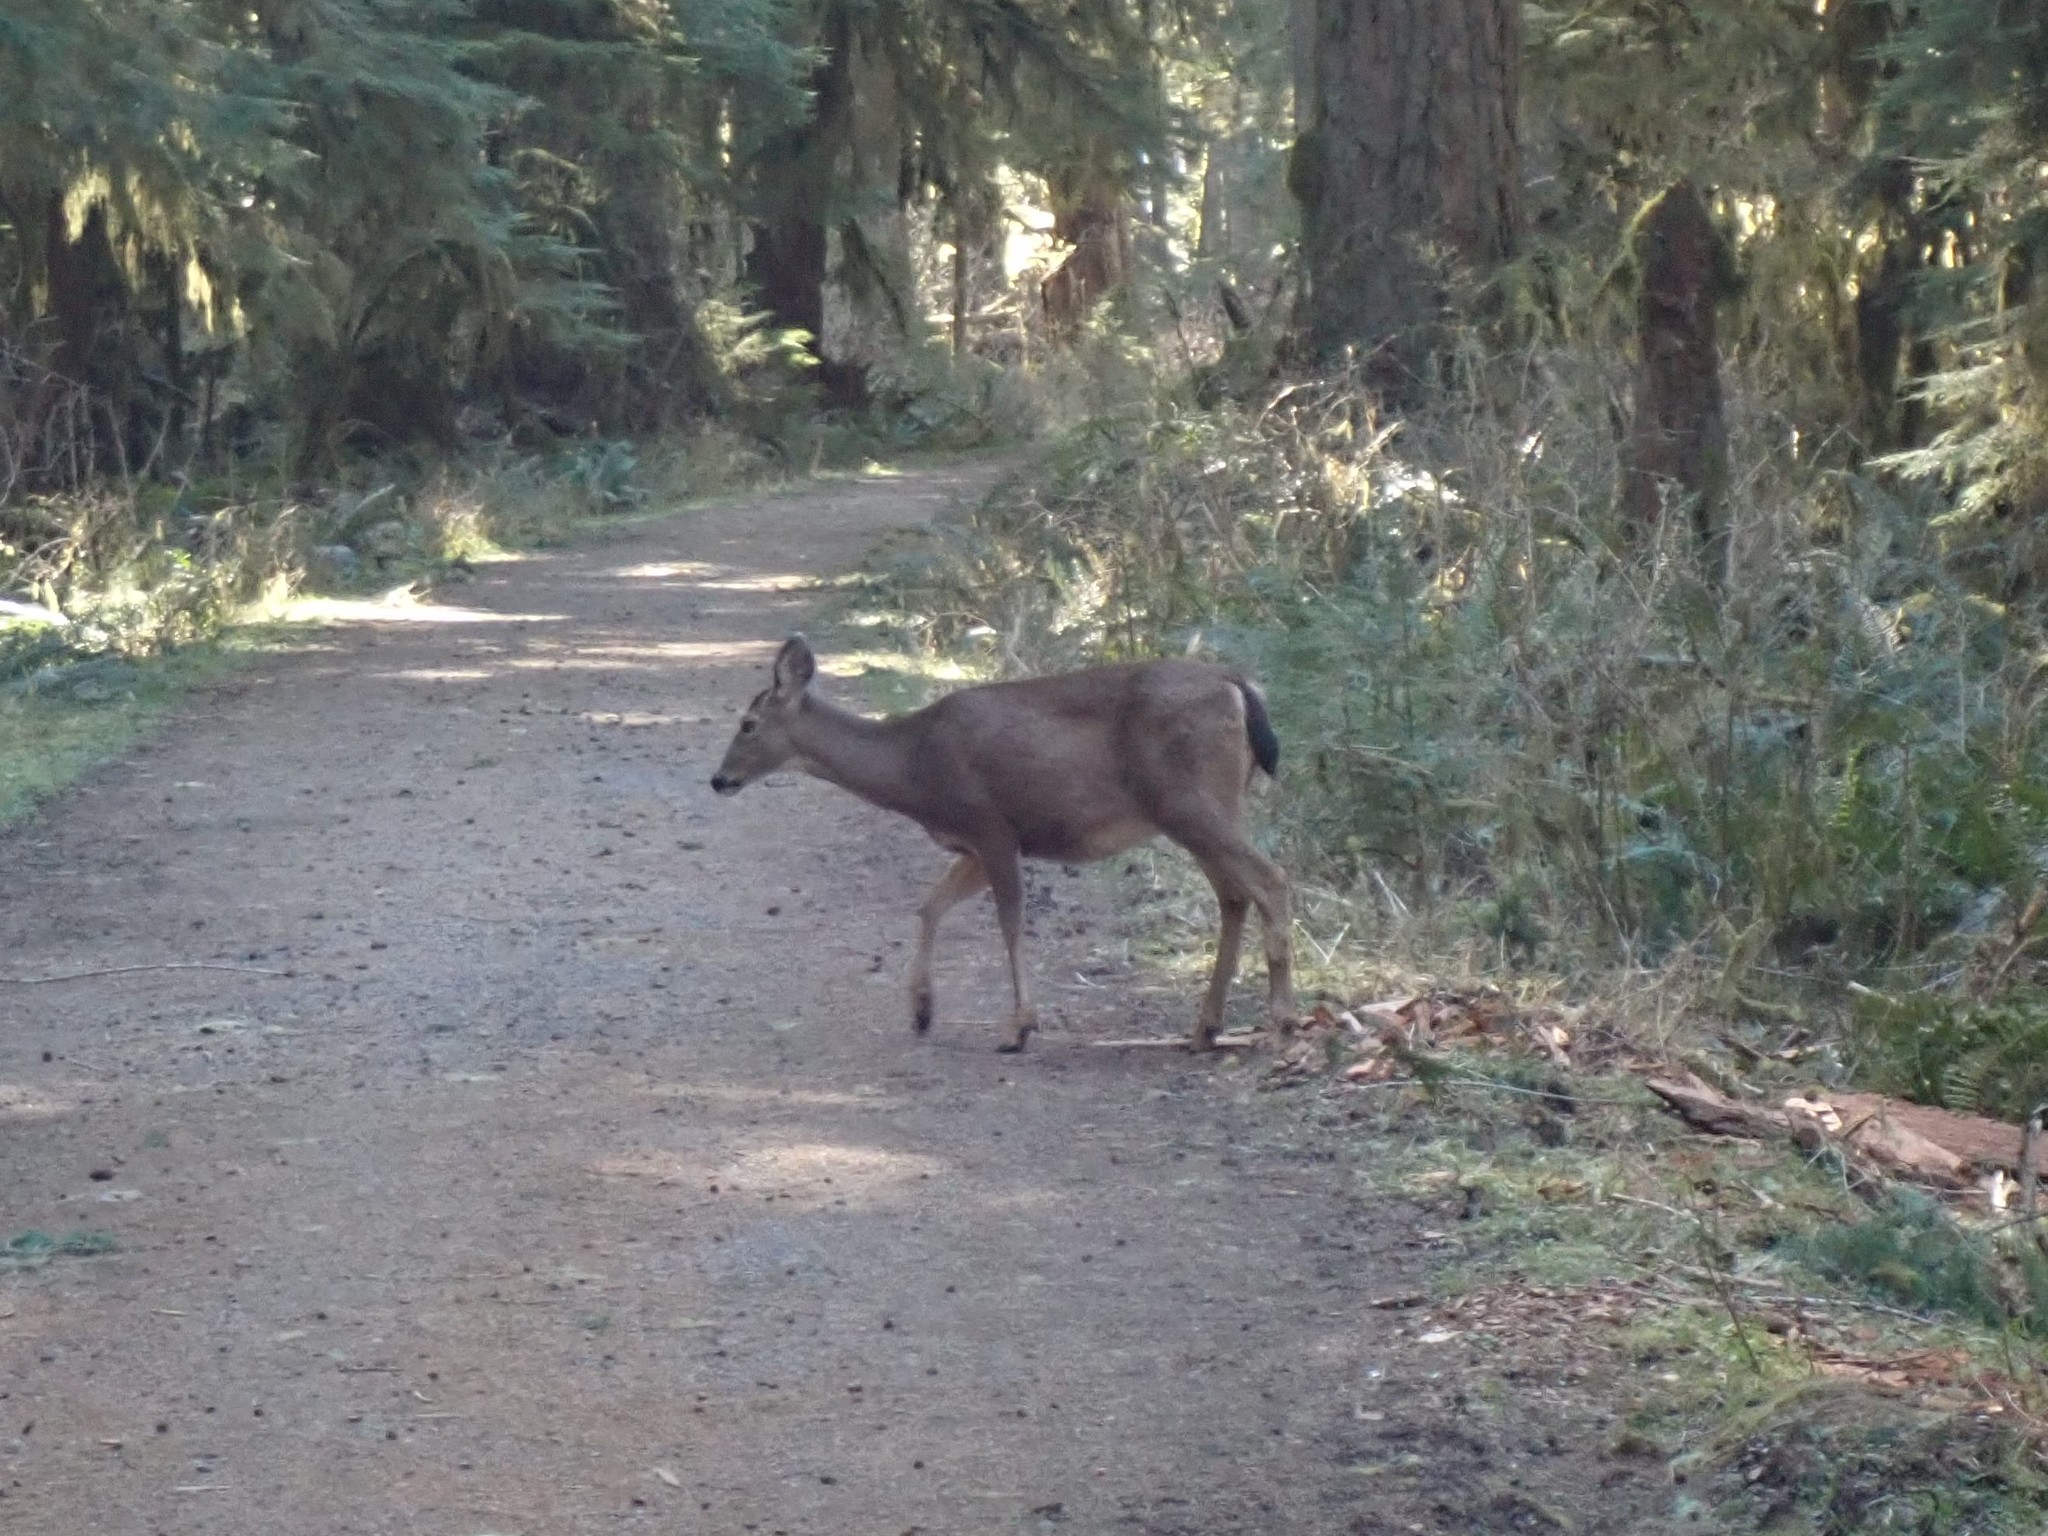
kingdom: Animalia
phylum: Chordata
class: Mammalia
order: Artiodactyla
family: Cervidae
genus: Odocoileus
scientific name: Odocoileus hemionus
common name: Mule deer
